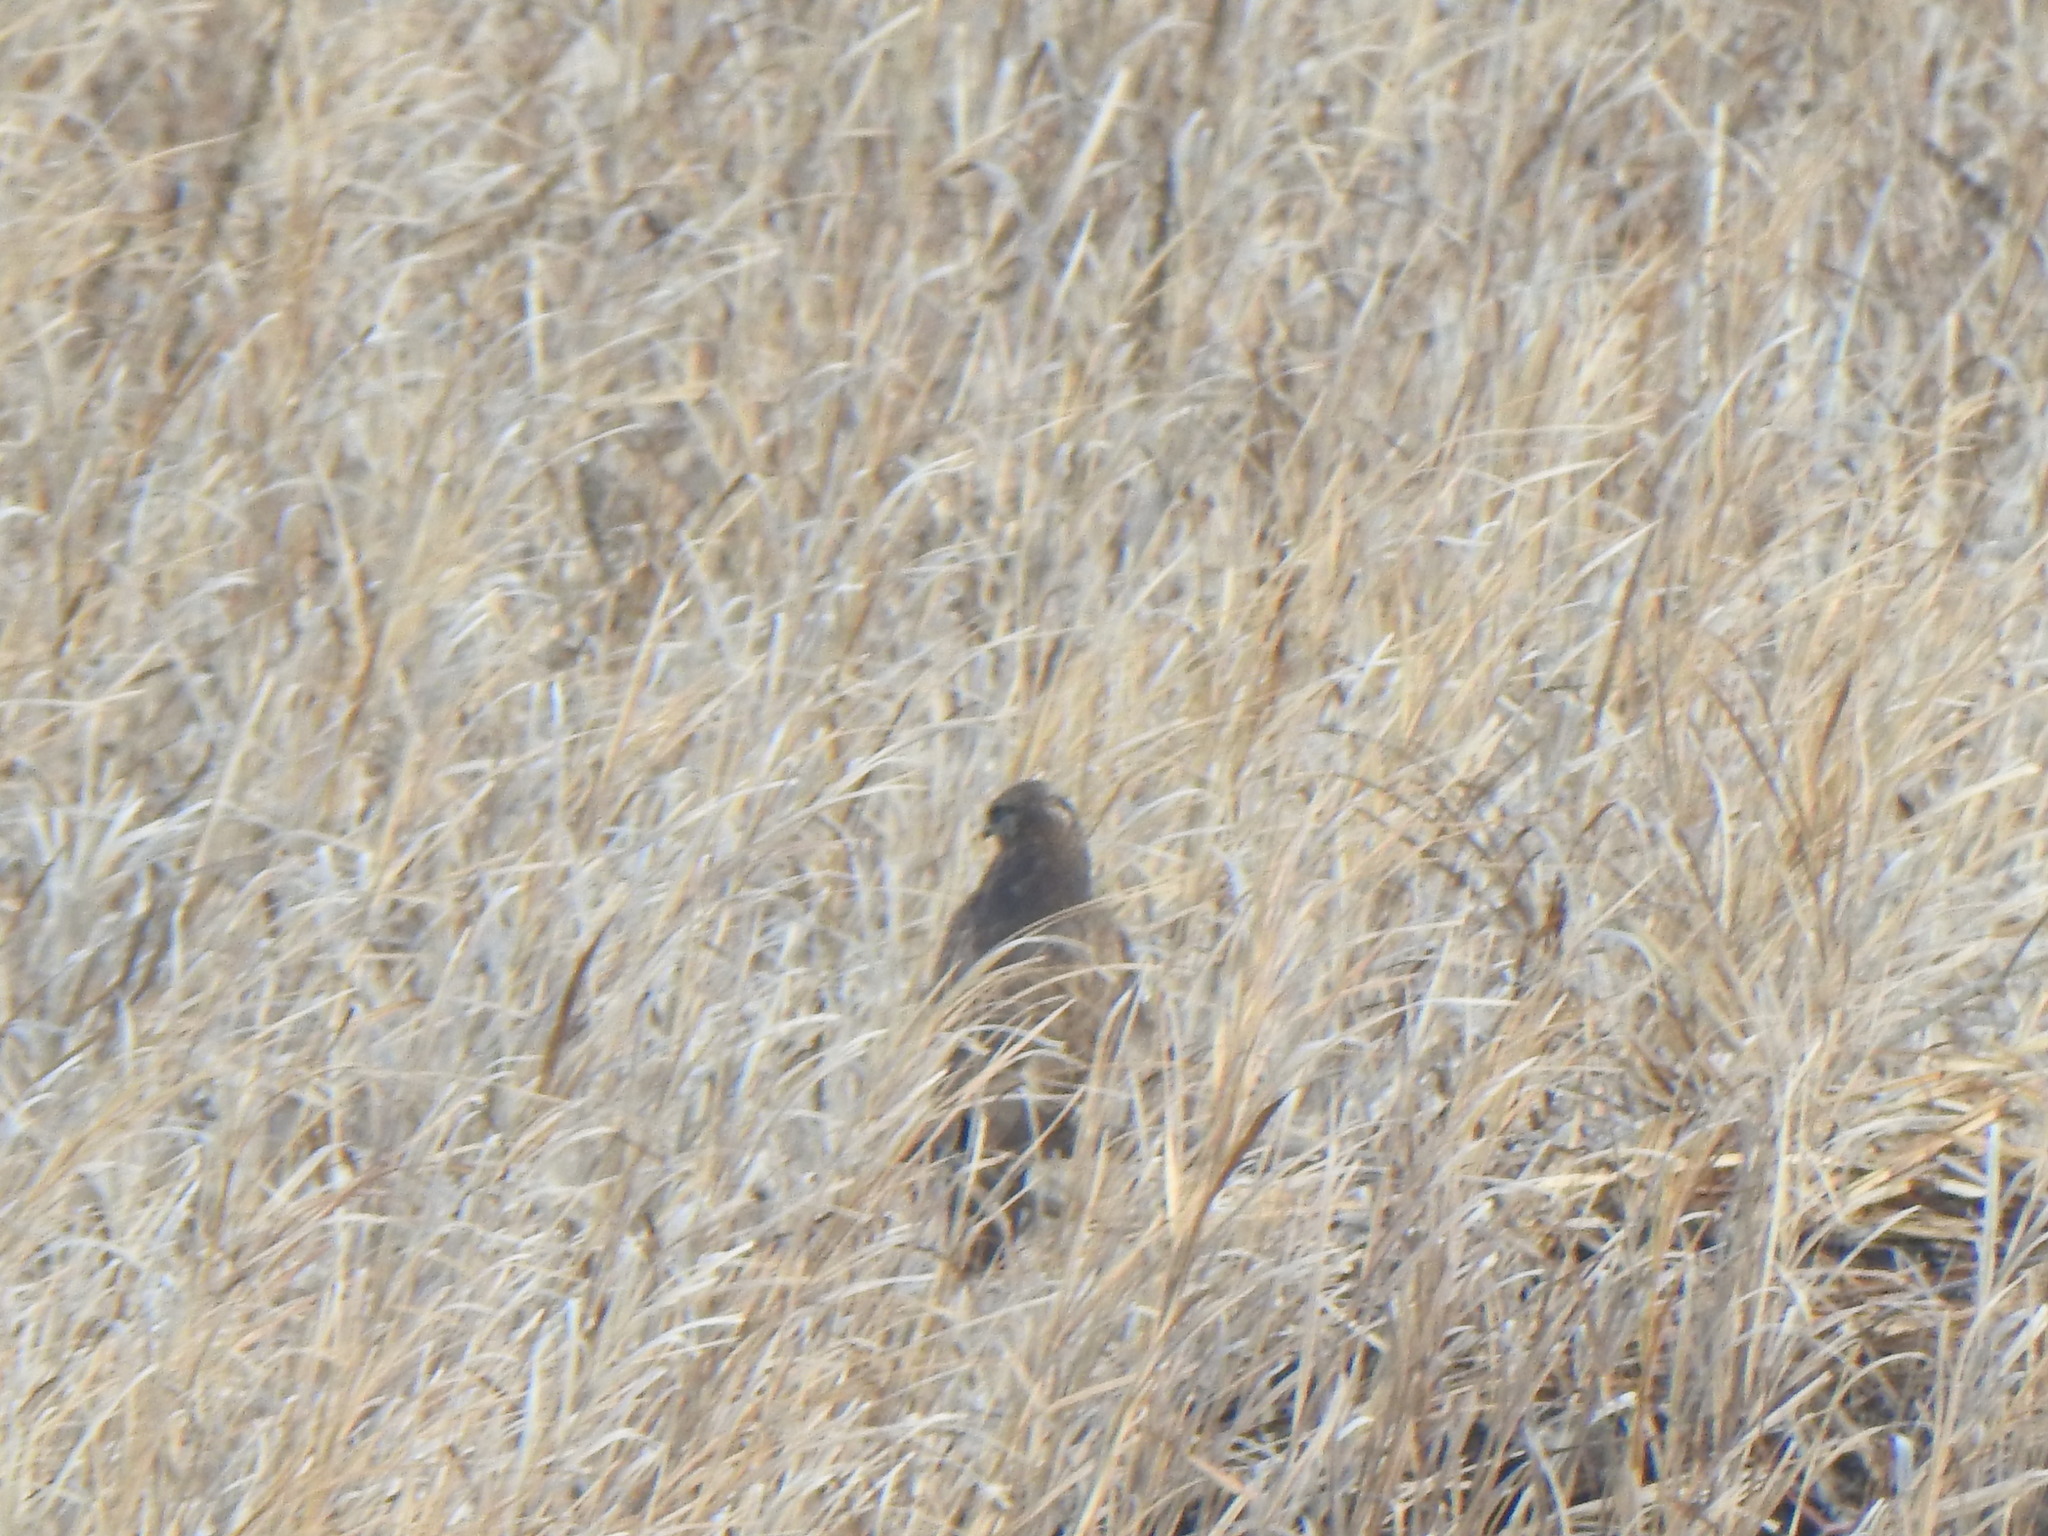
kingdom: Animalia
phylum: Chordata
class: Aves
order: Accipitriformes
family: Accipitridae
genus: Buteo
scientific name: Buteo lagopus
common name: Rough-legged buzzard
